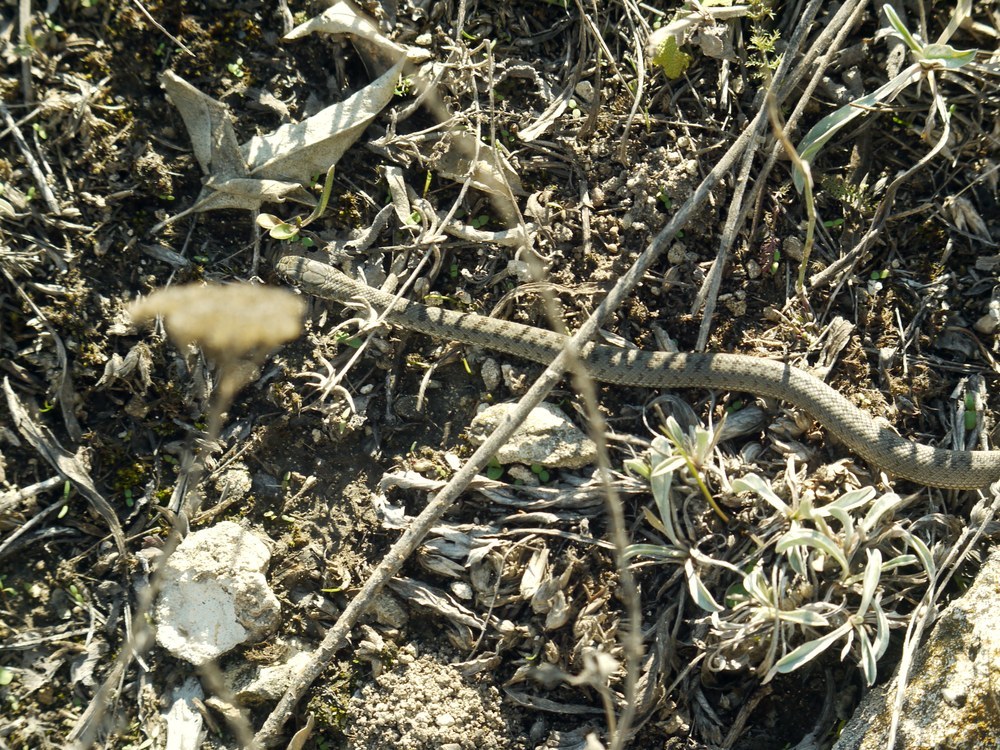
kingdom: Animalia
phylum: Chordata
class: Squamata
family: Colubridae
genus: Dolichophis
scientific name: Dolichophis caspius
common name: Large whip snake
